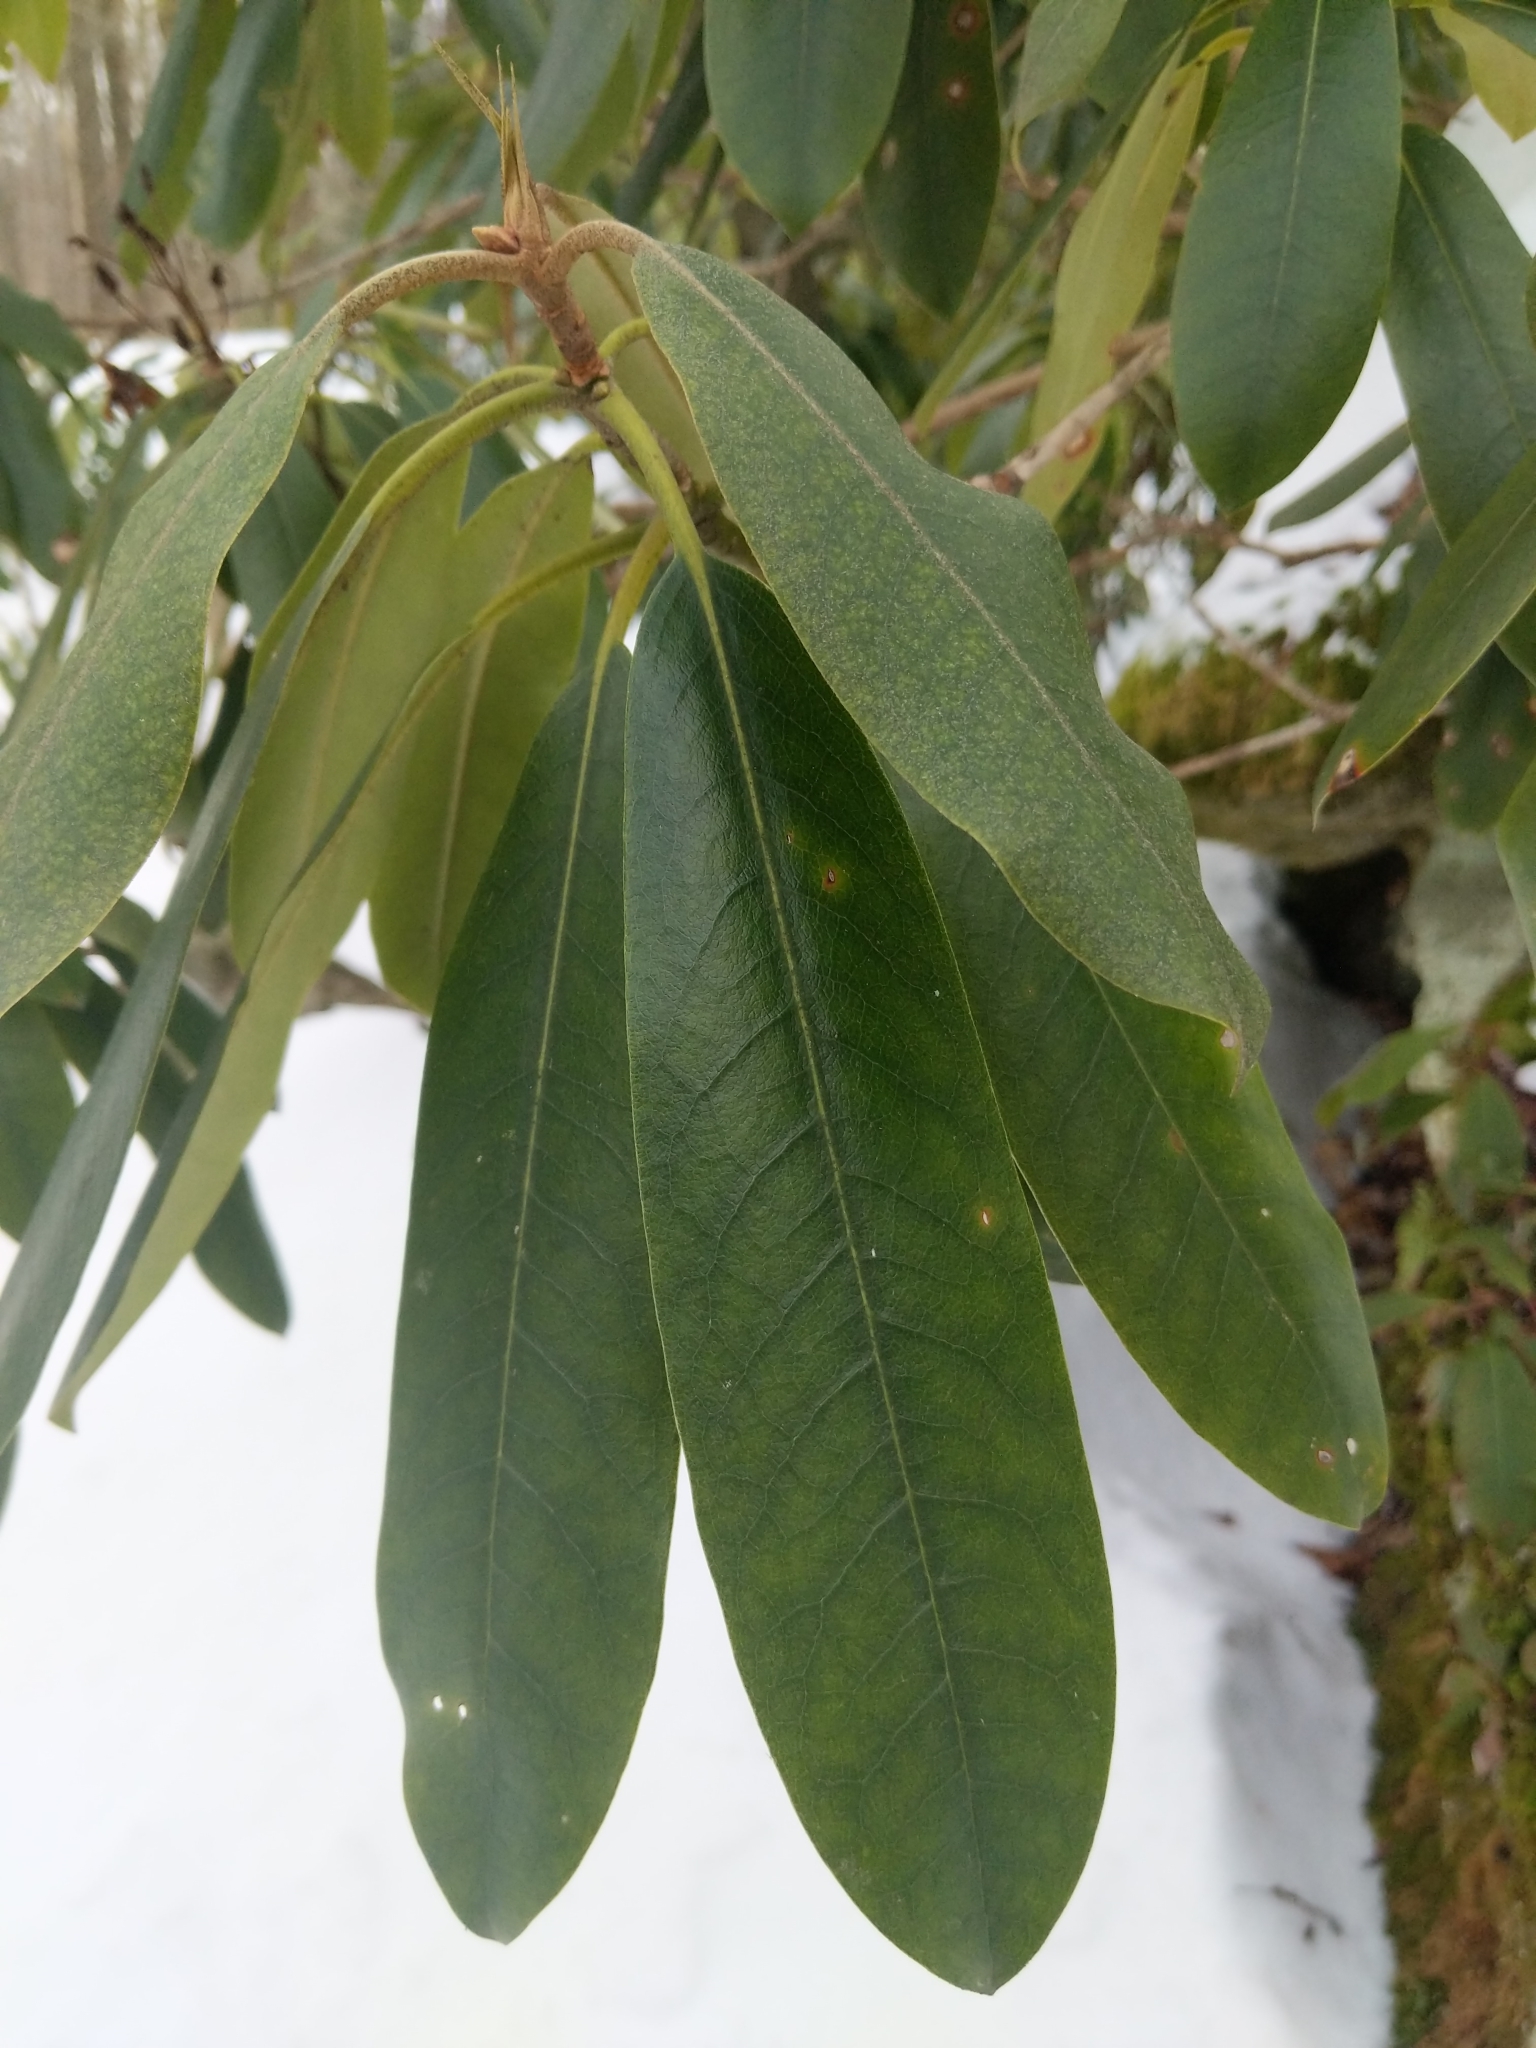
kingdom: Plantae
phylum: Tracheophyta
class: Magnoliopsida
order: Ericales
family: Ericaceae
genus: Rhododendron
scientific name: Rhododendron maximum
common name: Great rhododendron
